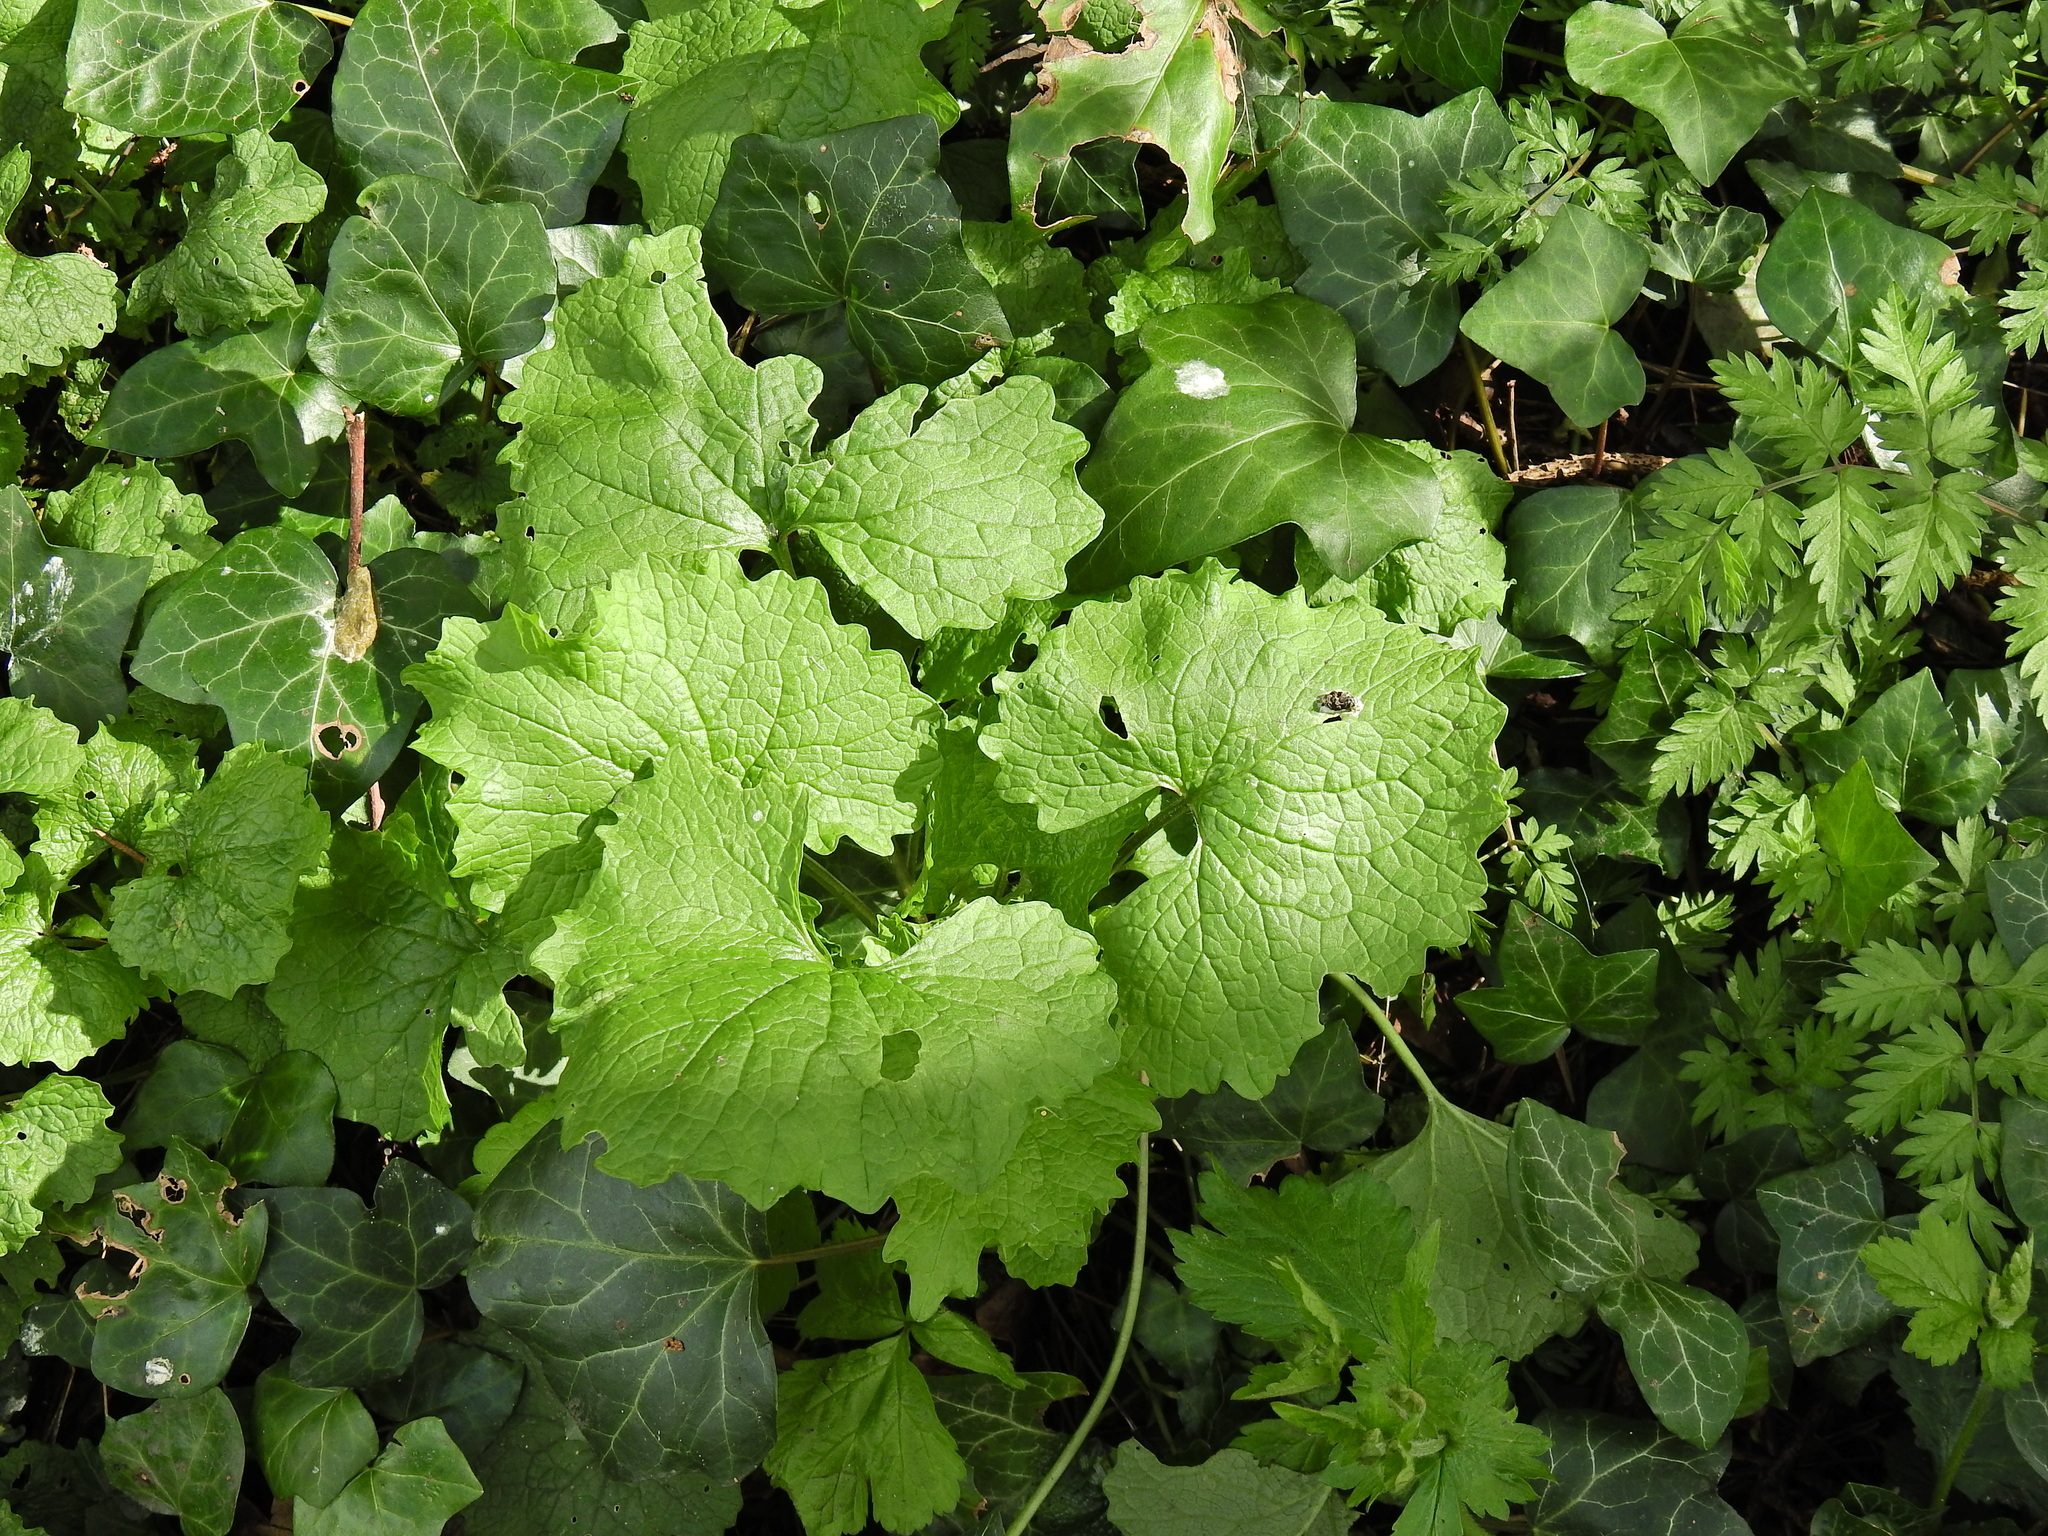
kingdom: Plantae
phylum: Tracheophyta
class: Magnoliopsida
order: Brassicales
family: Brassicaceae
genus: Alliaria
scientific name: Alliaria petiolata
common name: Garlic mustard
